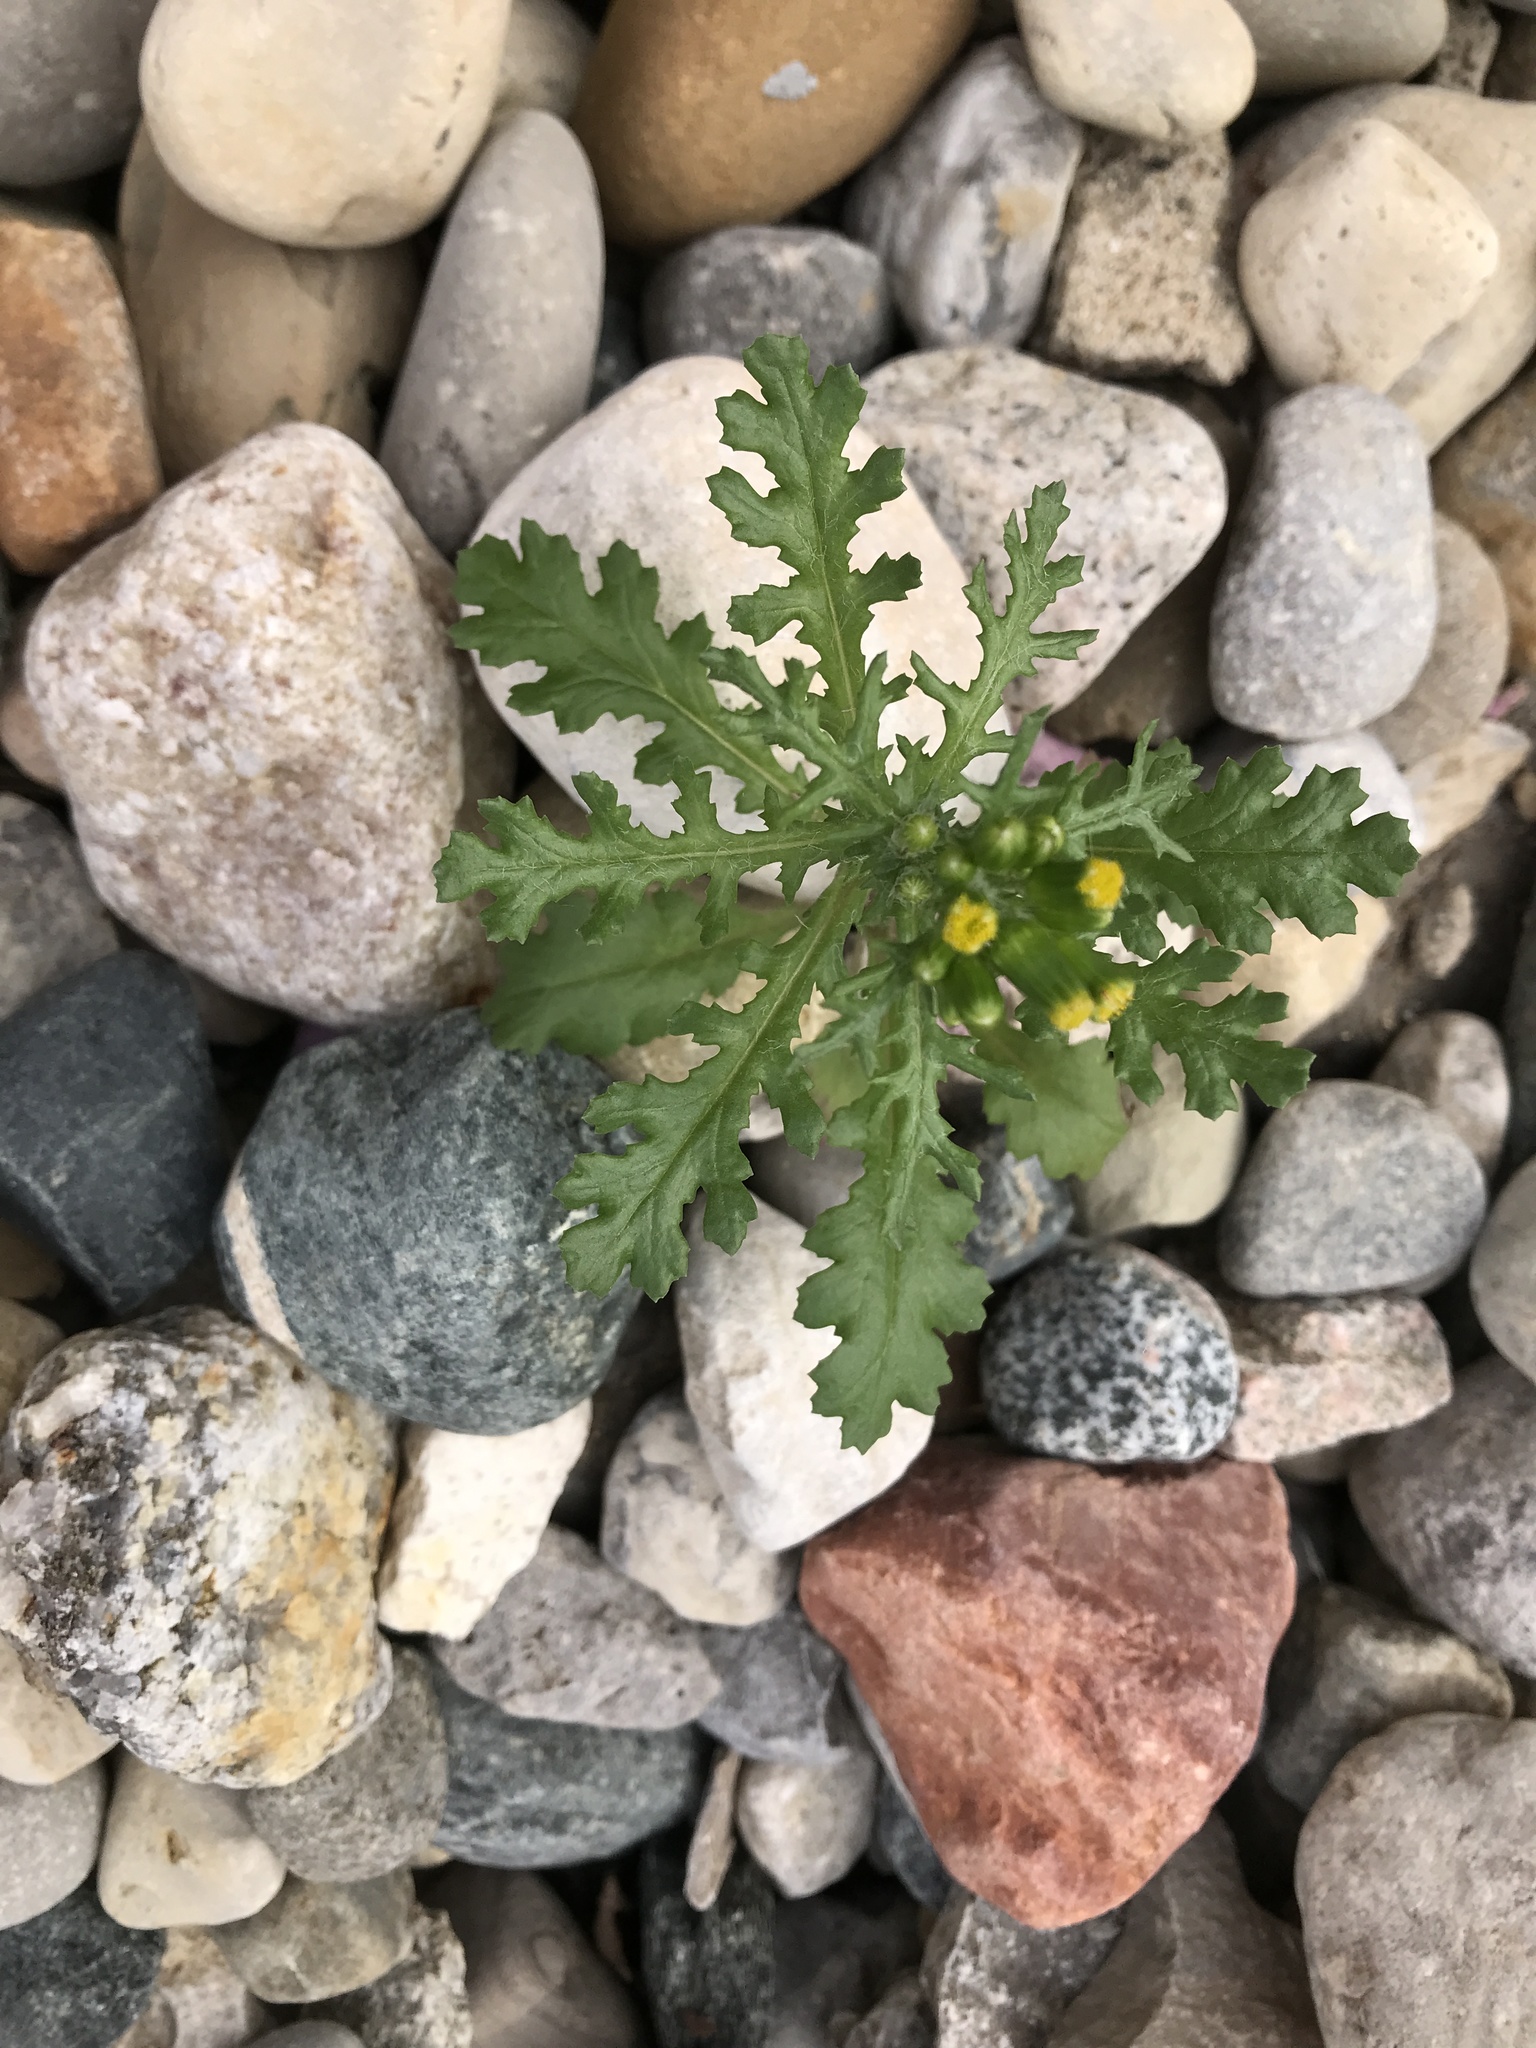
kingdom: Plantae
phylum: Tracheophyta
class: Magnoliopsida
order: Asterales
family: Asteraceae
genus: Senecio
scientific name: Senecio vulgaris
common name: Old-man-in-the-spring
